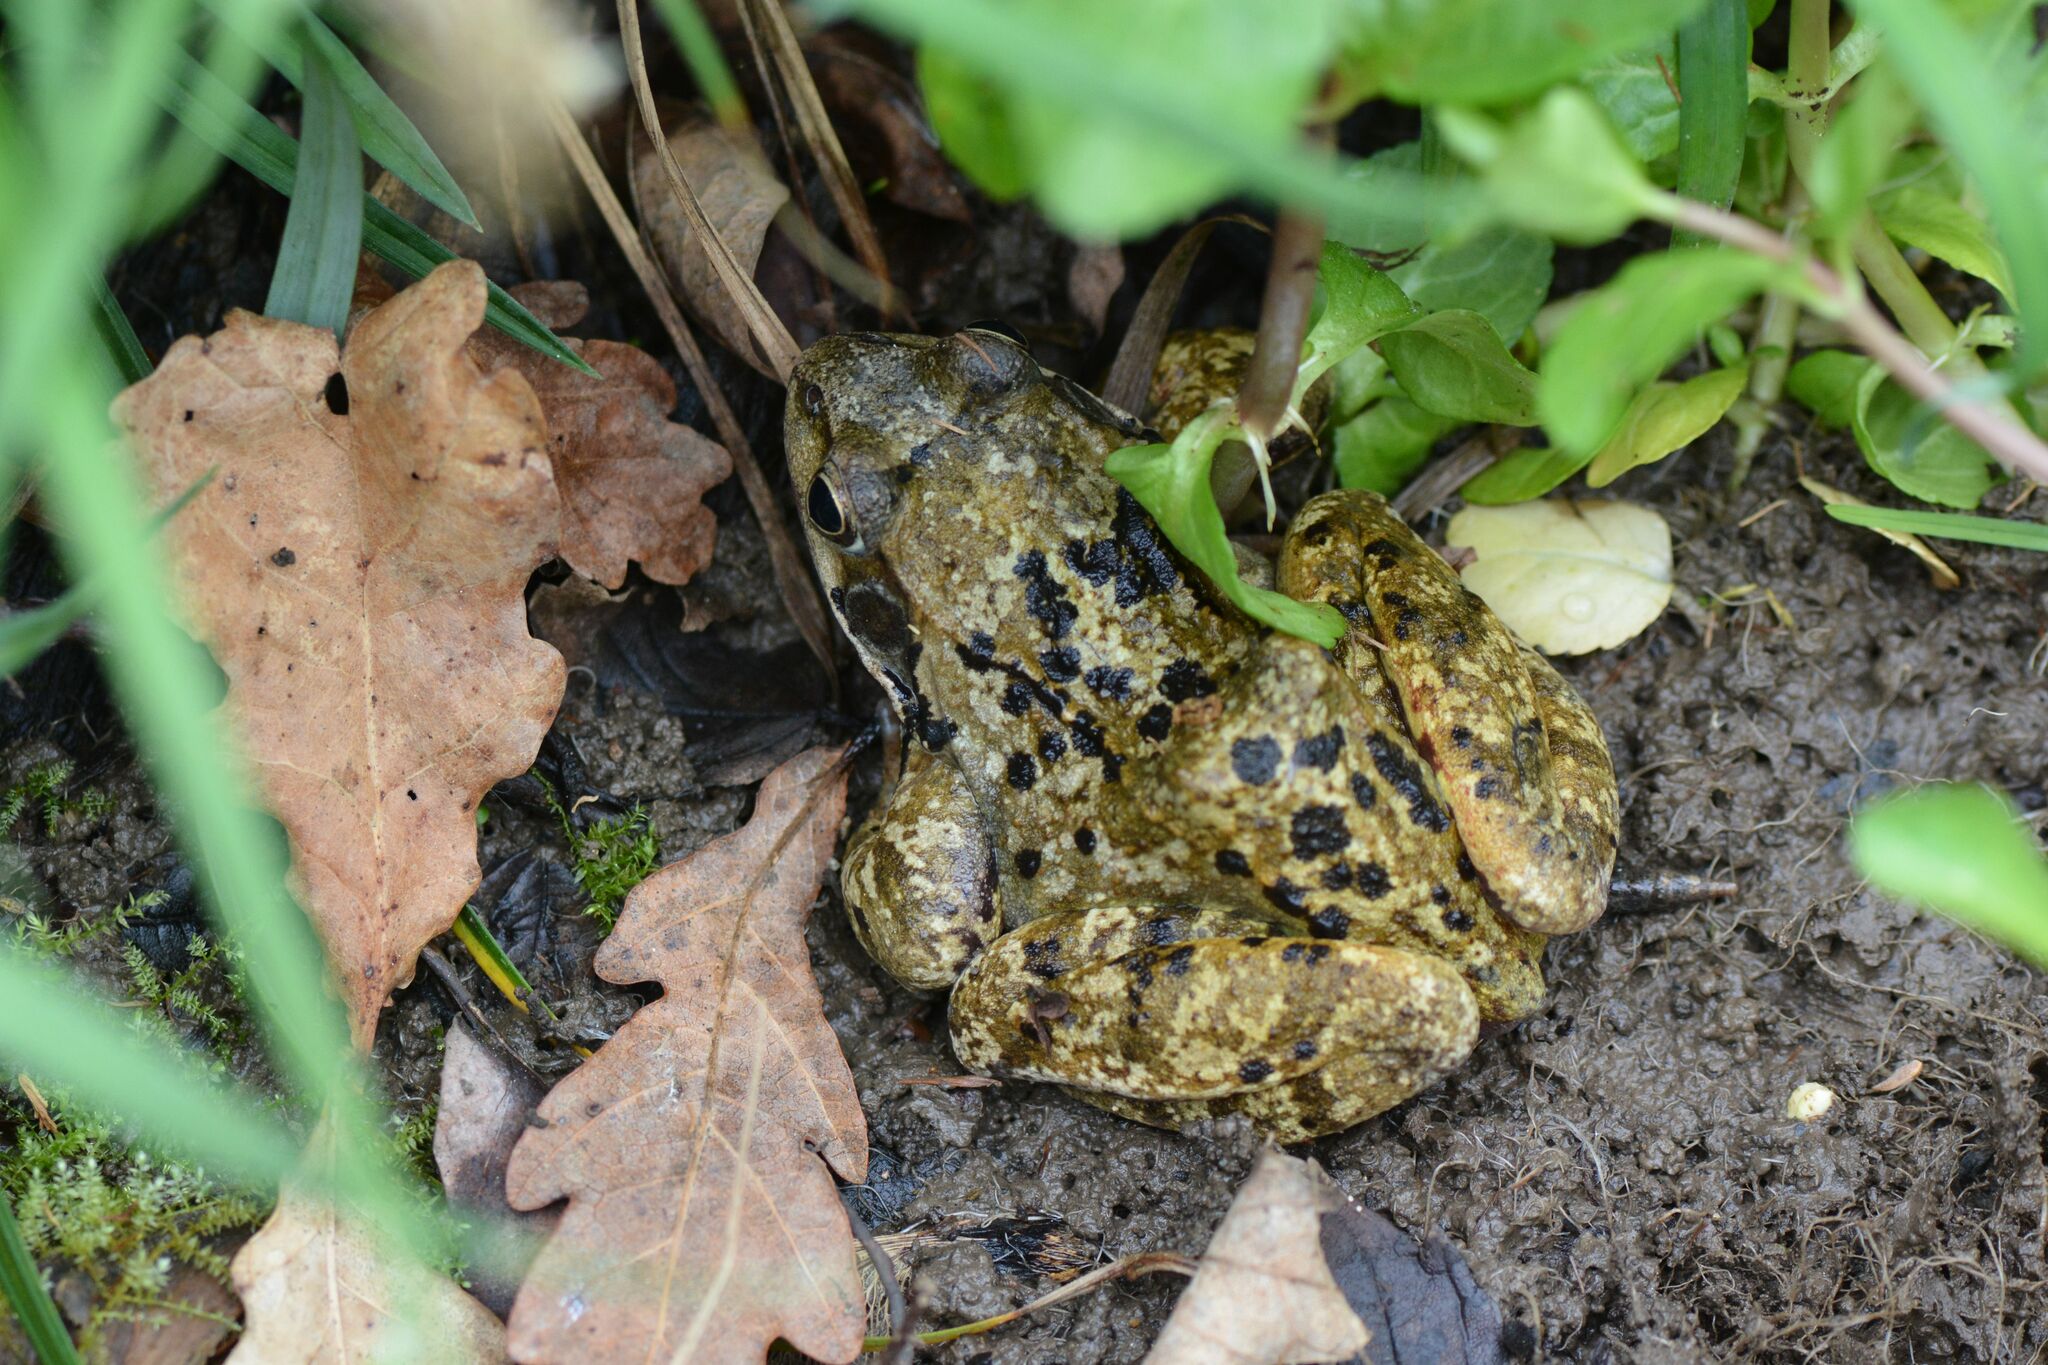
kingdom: Animalia
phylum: Chordata
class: Amphibia
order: Anura
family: Ranidae
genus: Rana
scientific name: Rana temporaria
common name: Common frog
